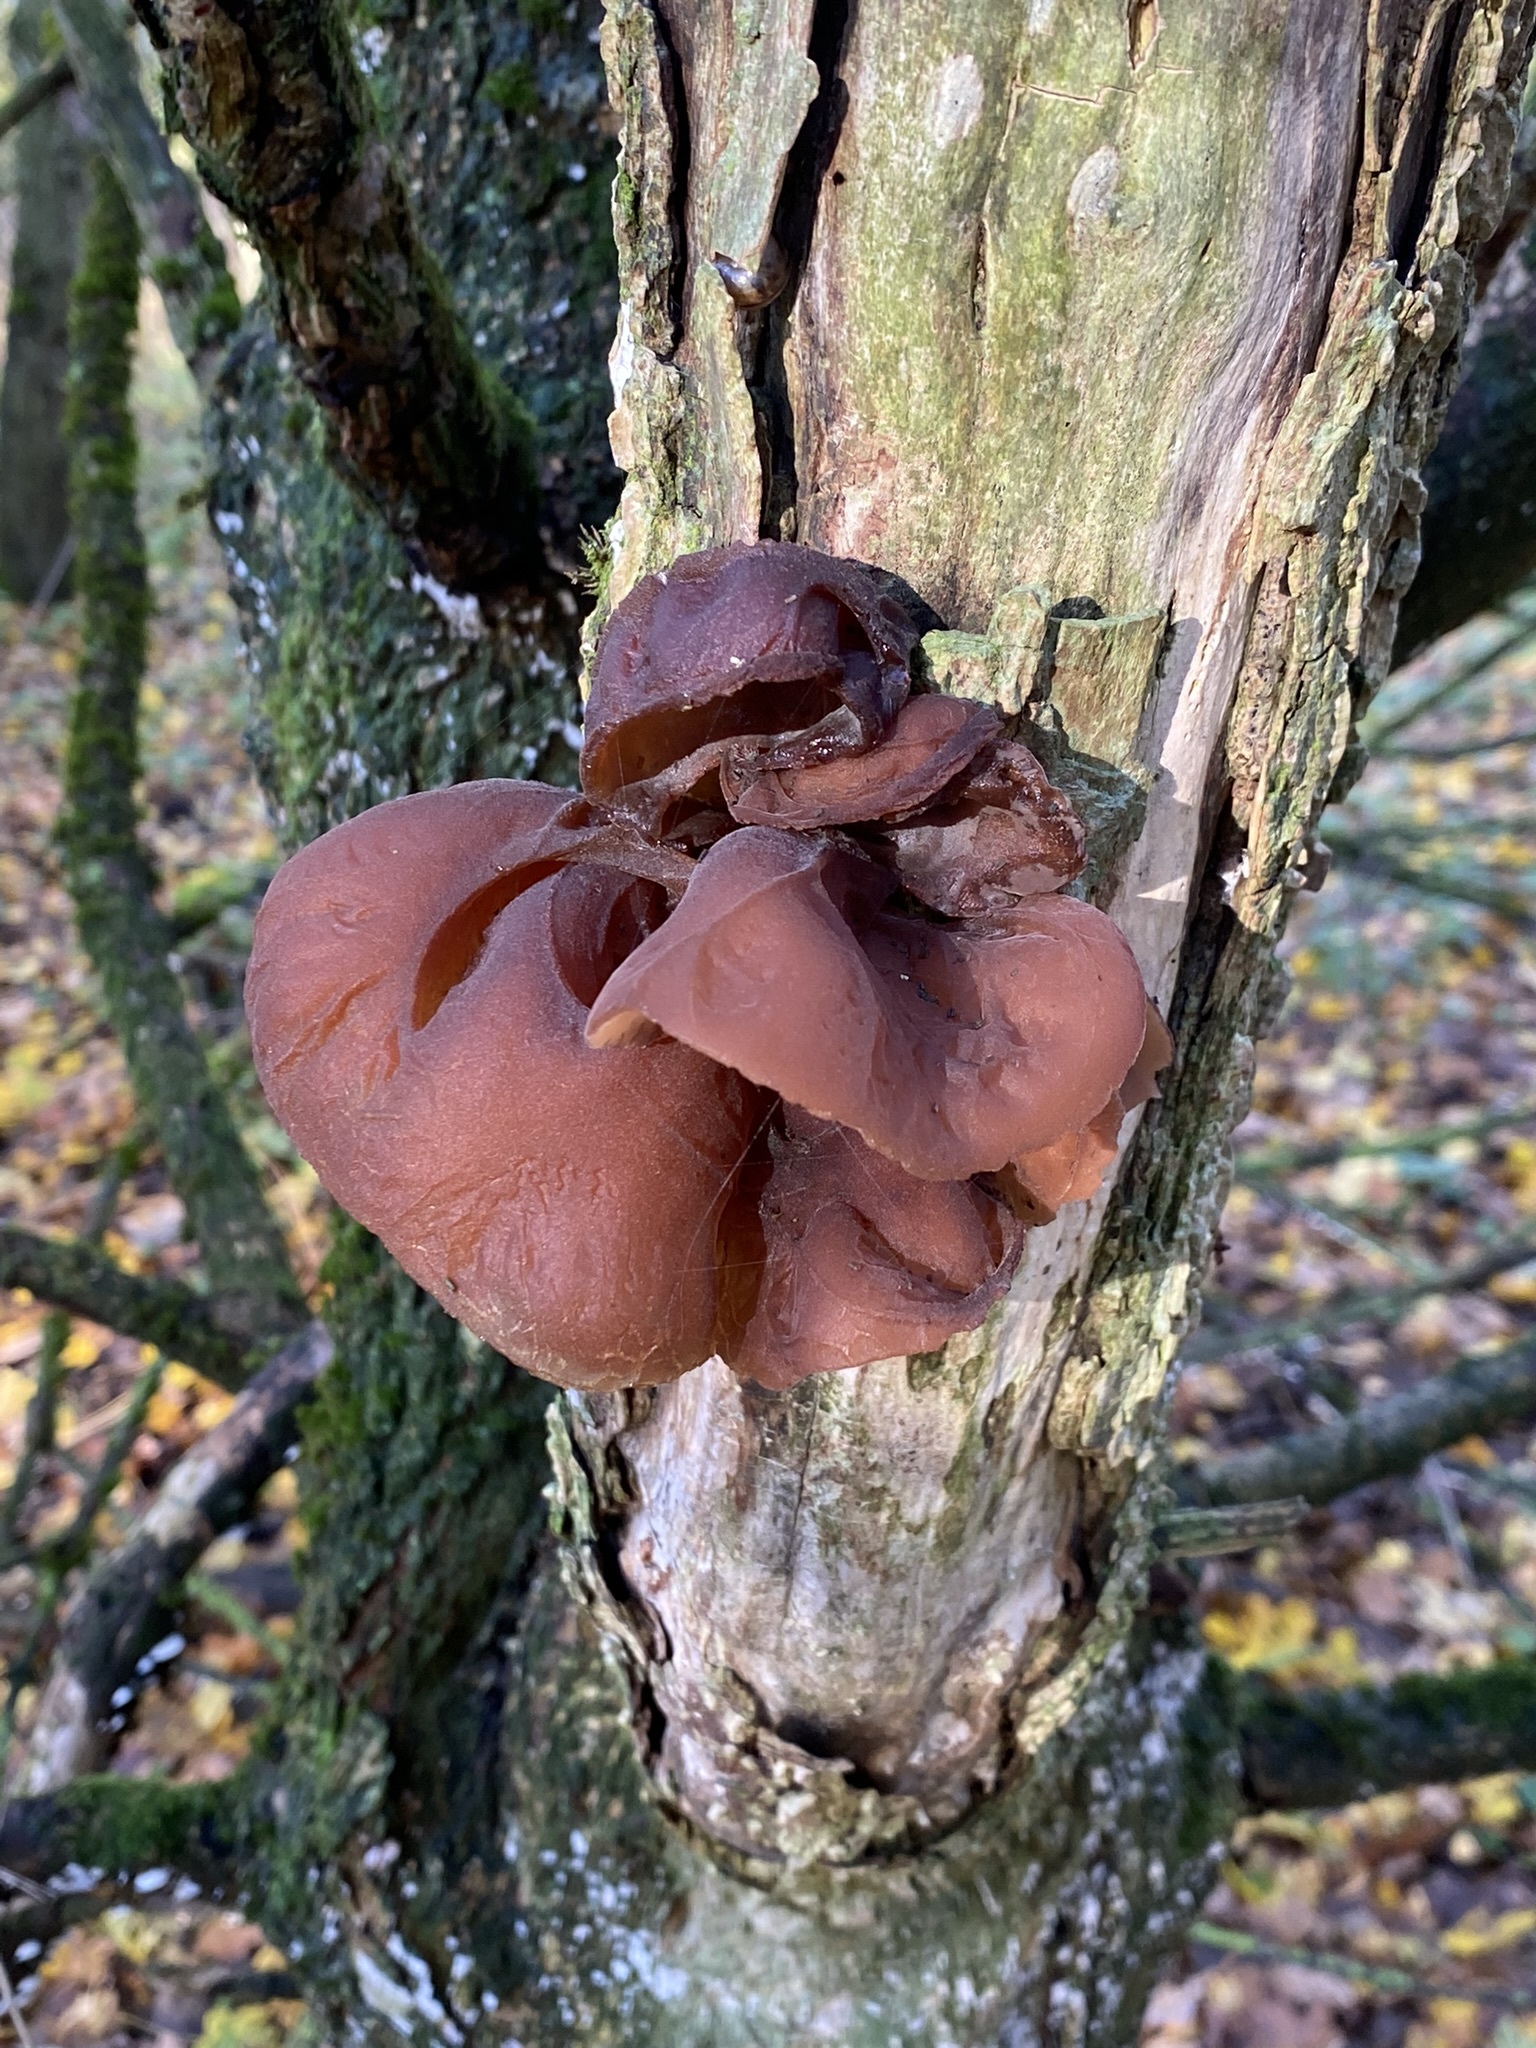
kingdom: Fungi
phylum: Basidiomycota
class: Agaricomycetes
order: Auriculariales
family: Auriculariaceae
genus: Auricularia
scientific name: Auricularia auricula-judae
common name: Jelly ear
